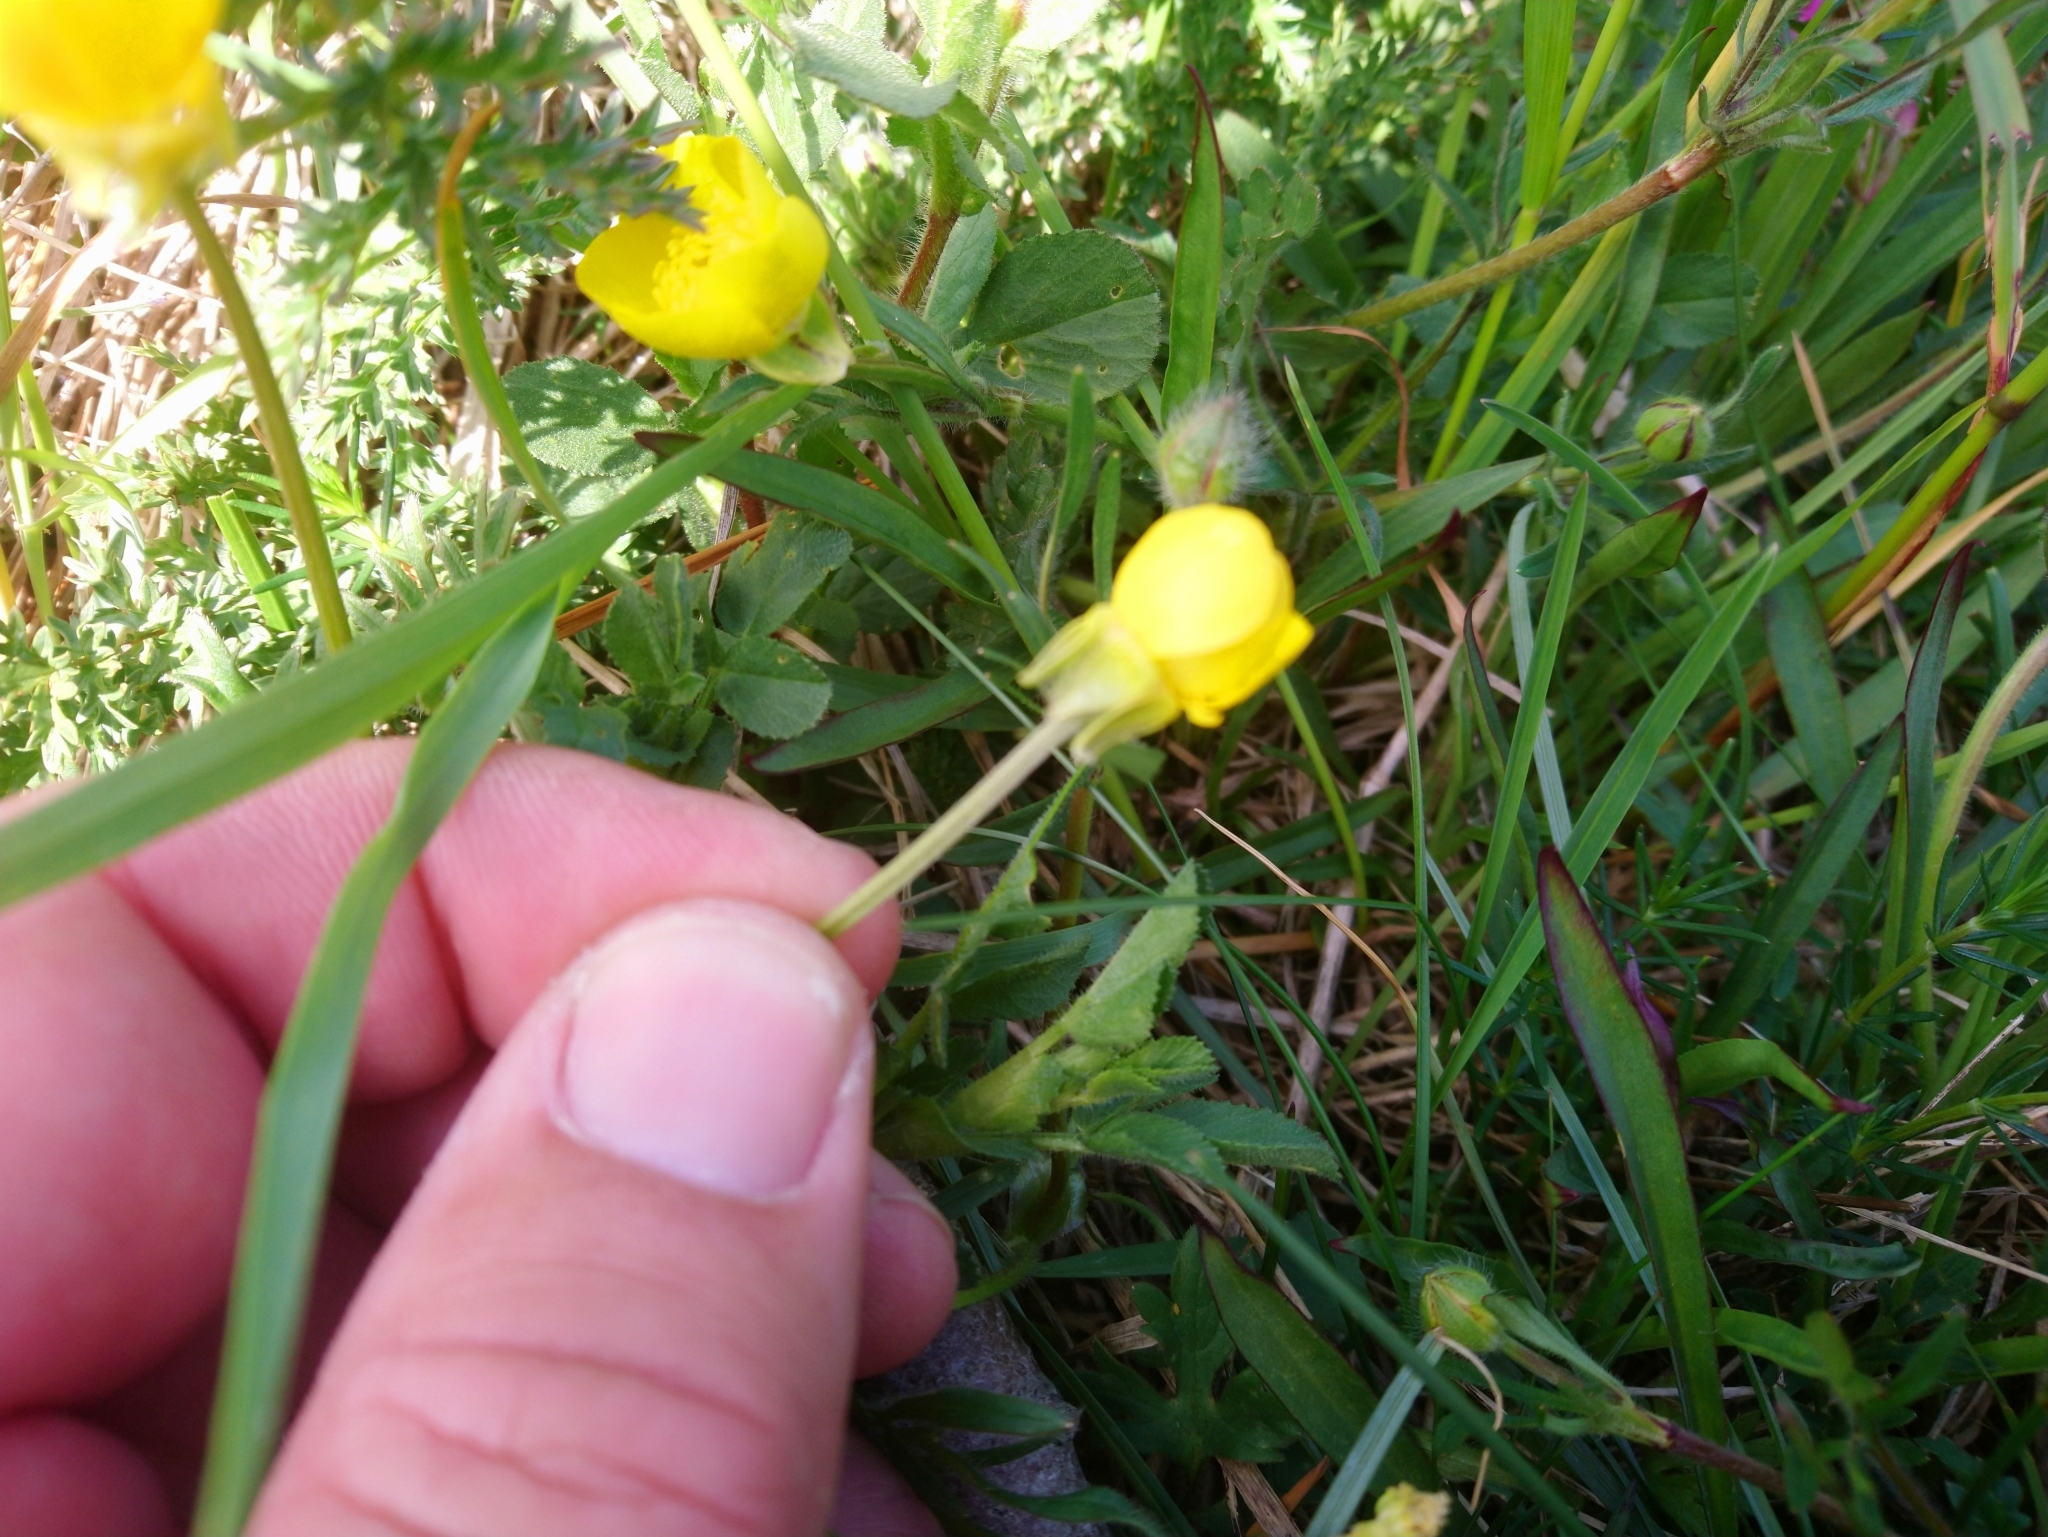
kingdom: Plantae
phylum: Tracheophyta
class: Magnoliopsida
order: Ranunculales
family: Ranunculaceae
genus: Ranunculus
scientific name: Ranunculus bulbosus
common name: Bulbous buttercup
